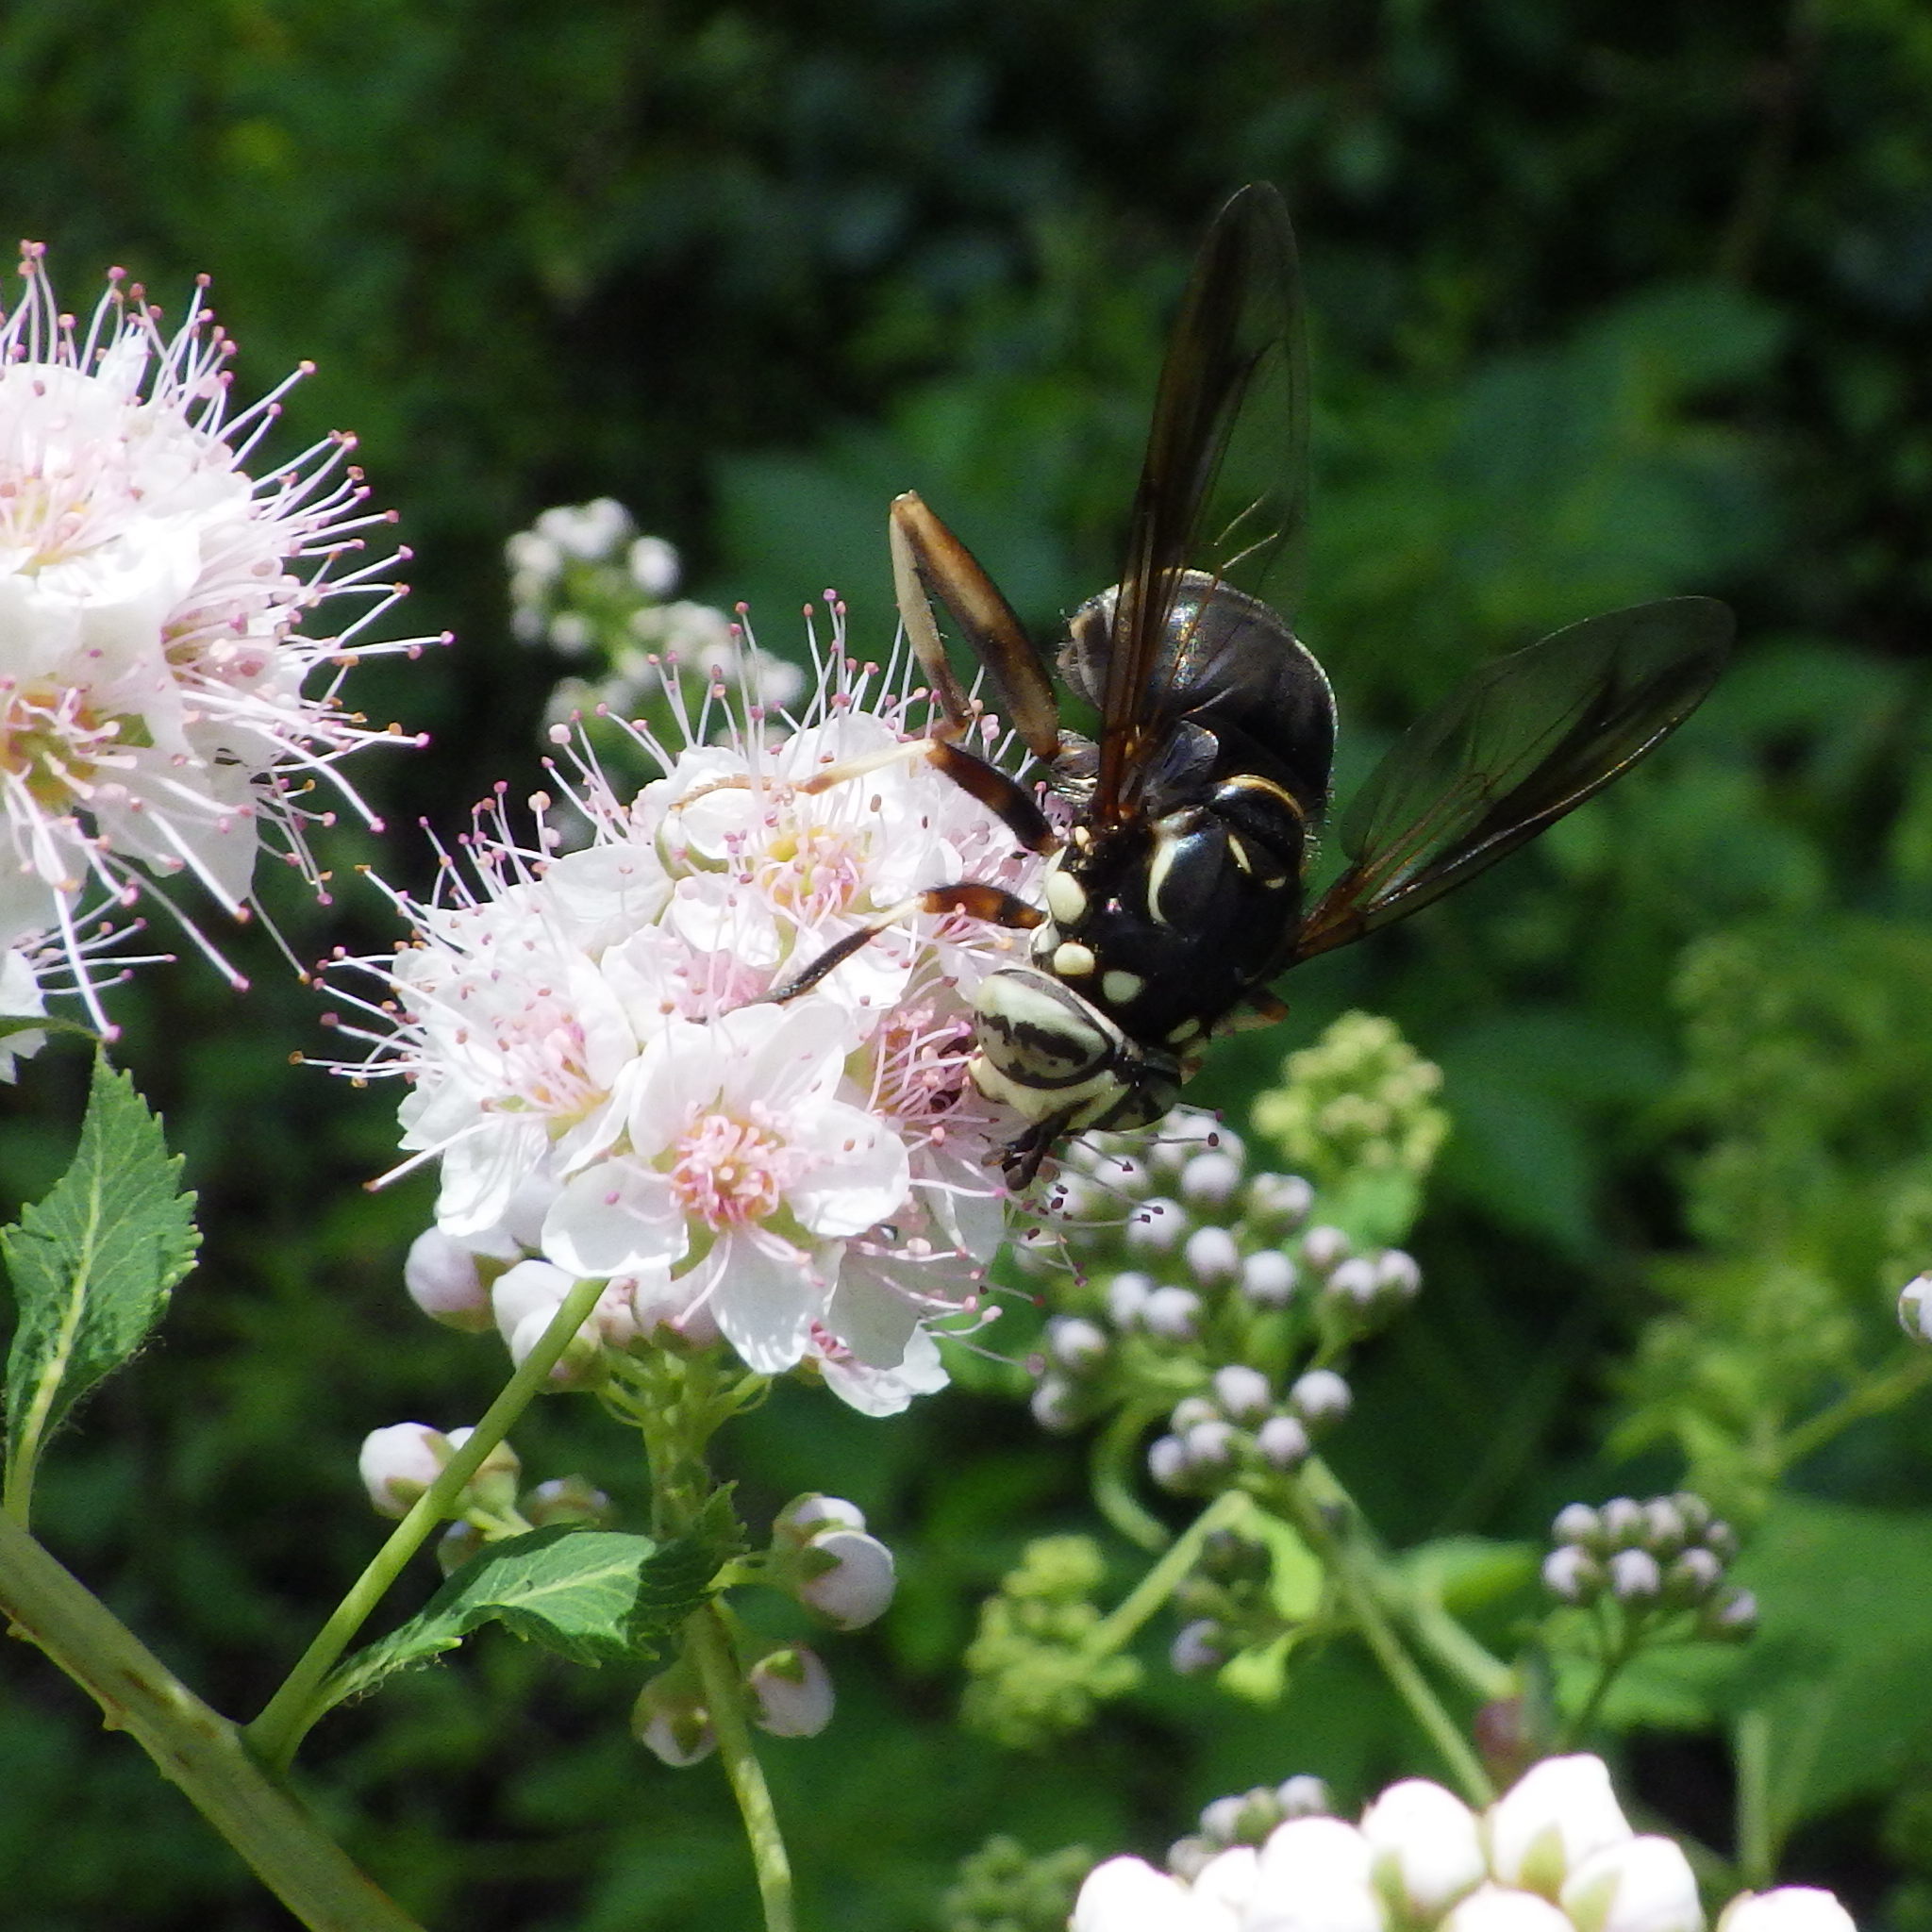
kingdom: Animalia
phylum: Arthropoda
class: Insecta
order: Diptera
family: Syrphidae
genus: Spilomyia
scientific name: Spilomyia fusca
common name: Bald-faced hornet fly
